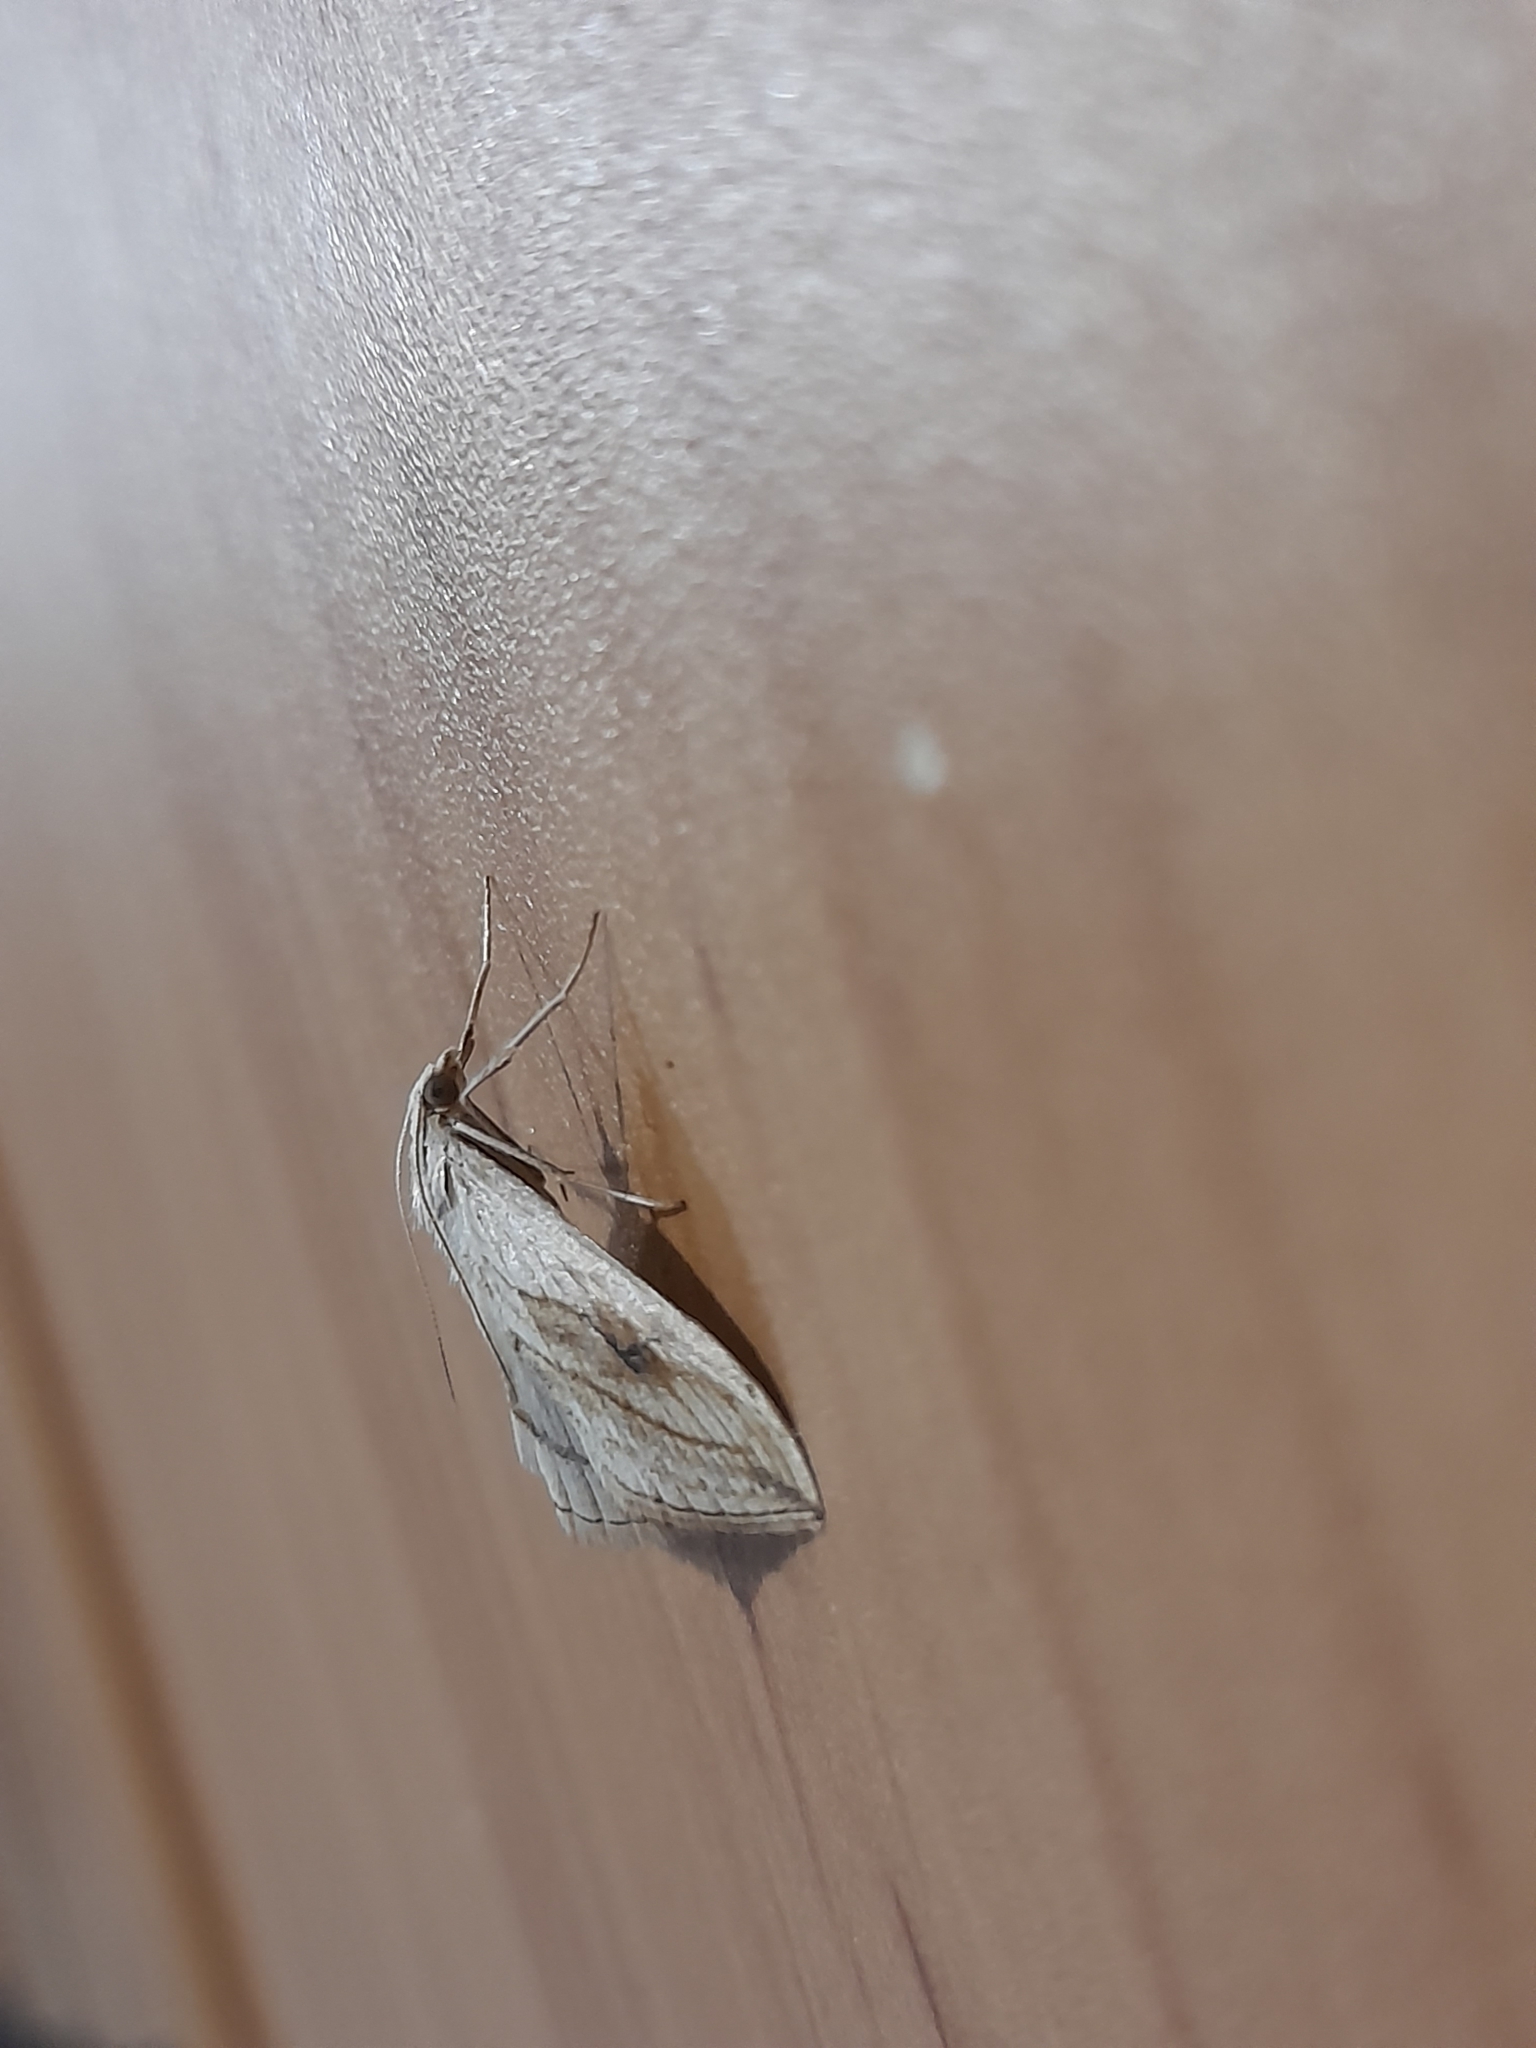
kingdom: Animalia
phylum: Arthropoda
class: Insecta
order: Lepidoptera
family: Crambidae
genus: Evergestis
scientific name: Evergestis forficalis
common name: Garden pebble
